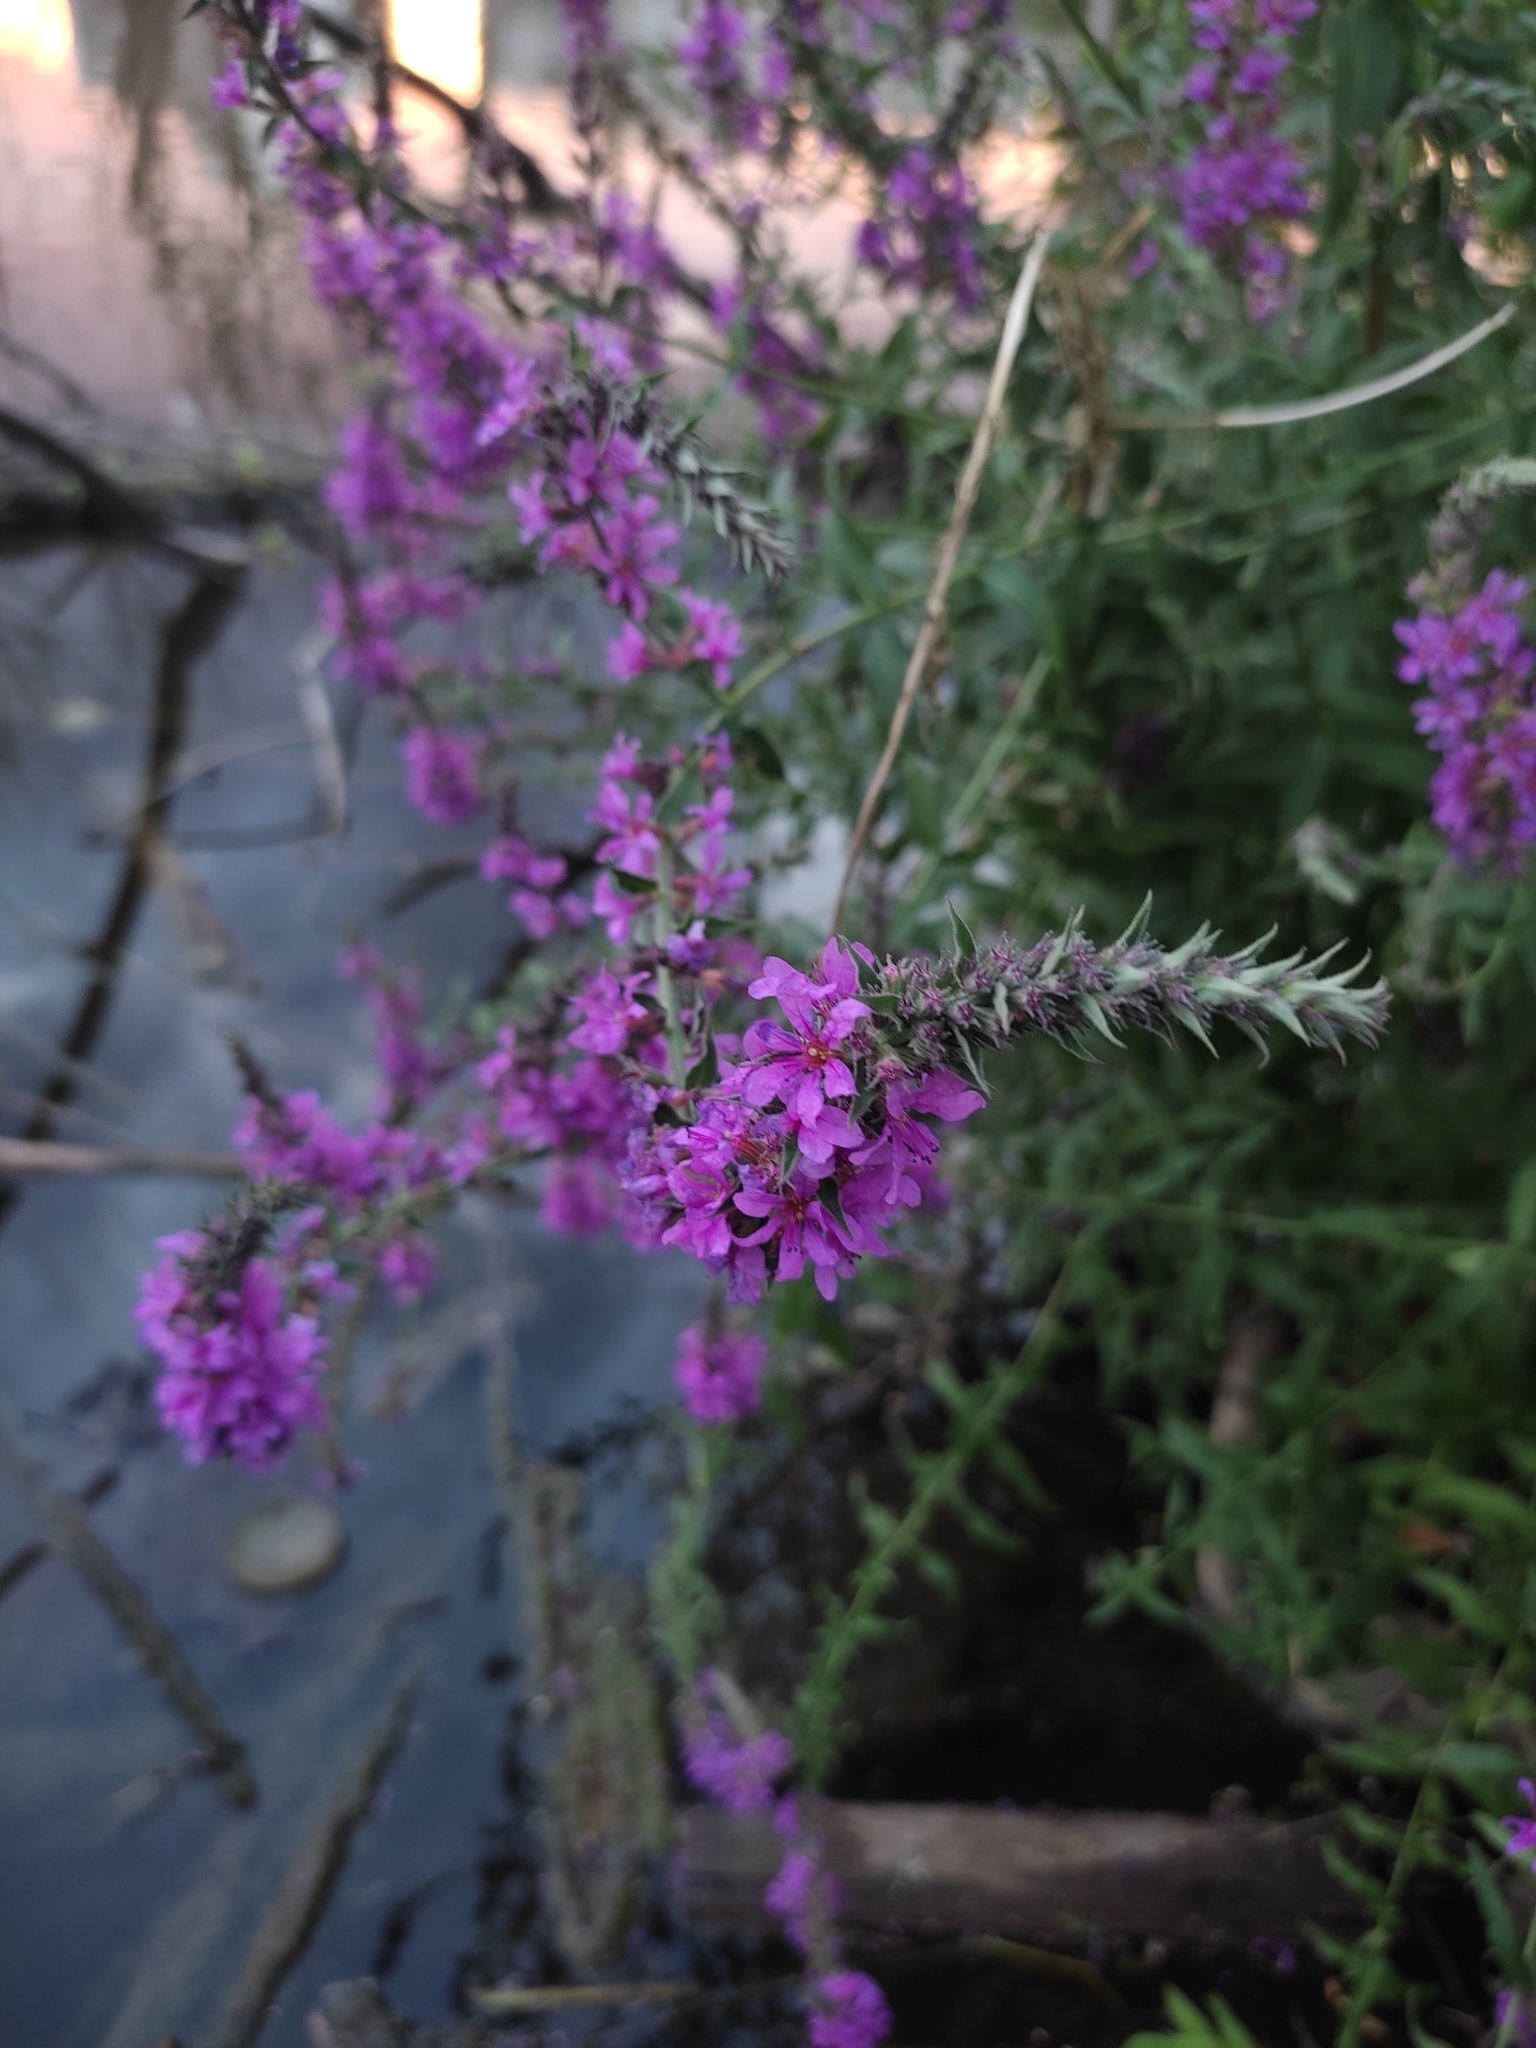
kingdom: Plantae
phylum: Tracheophyta
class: Magnoliopsida
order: Myrtales
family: Lythraceae
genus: Lythrum
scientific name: Lythrum salicaria
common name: Purple loosestrife
